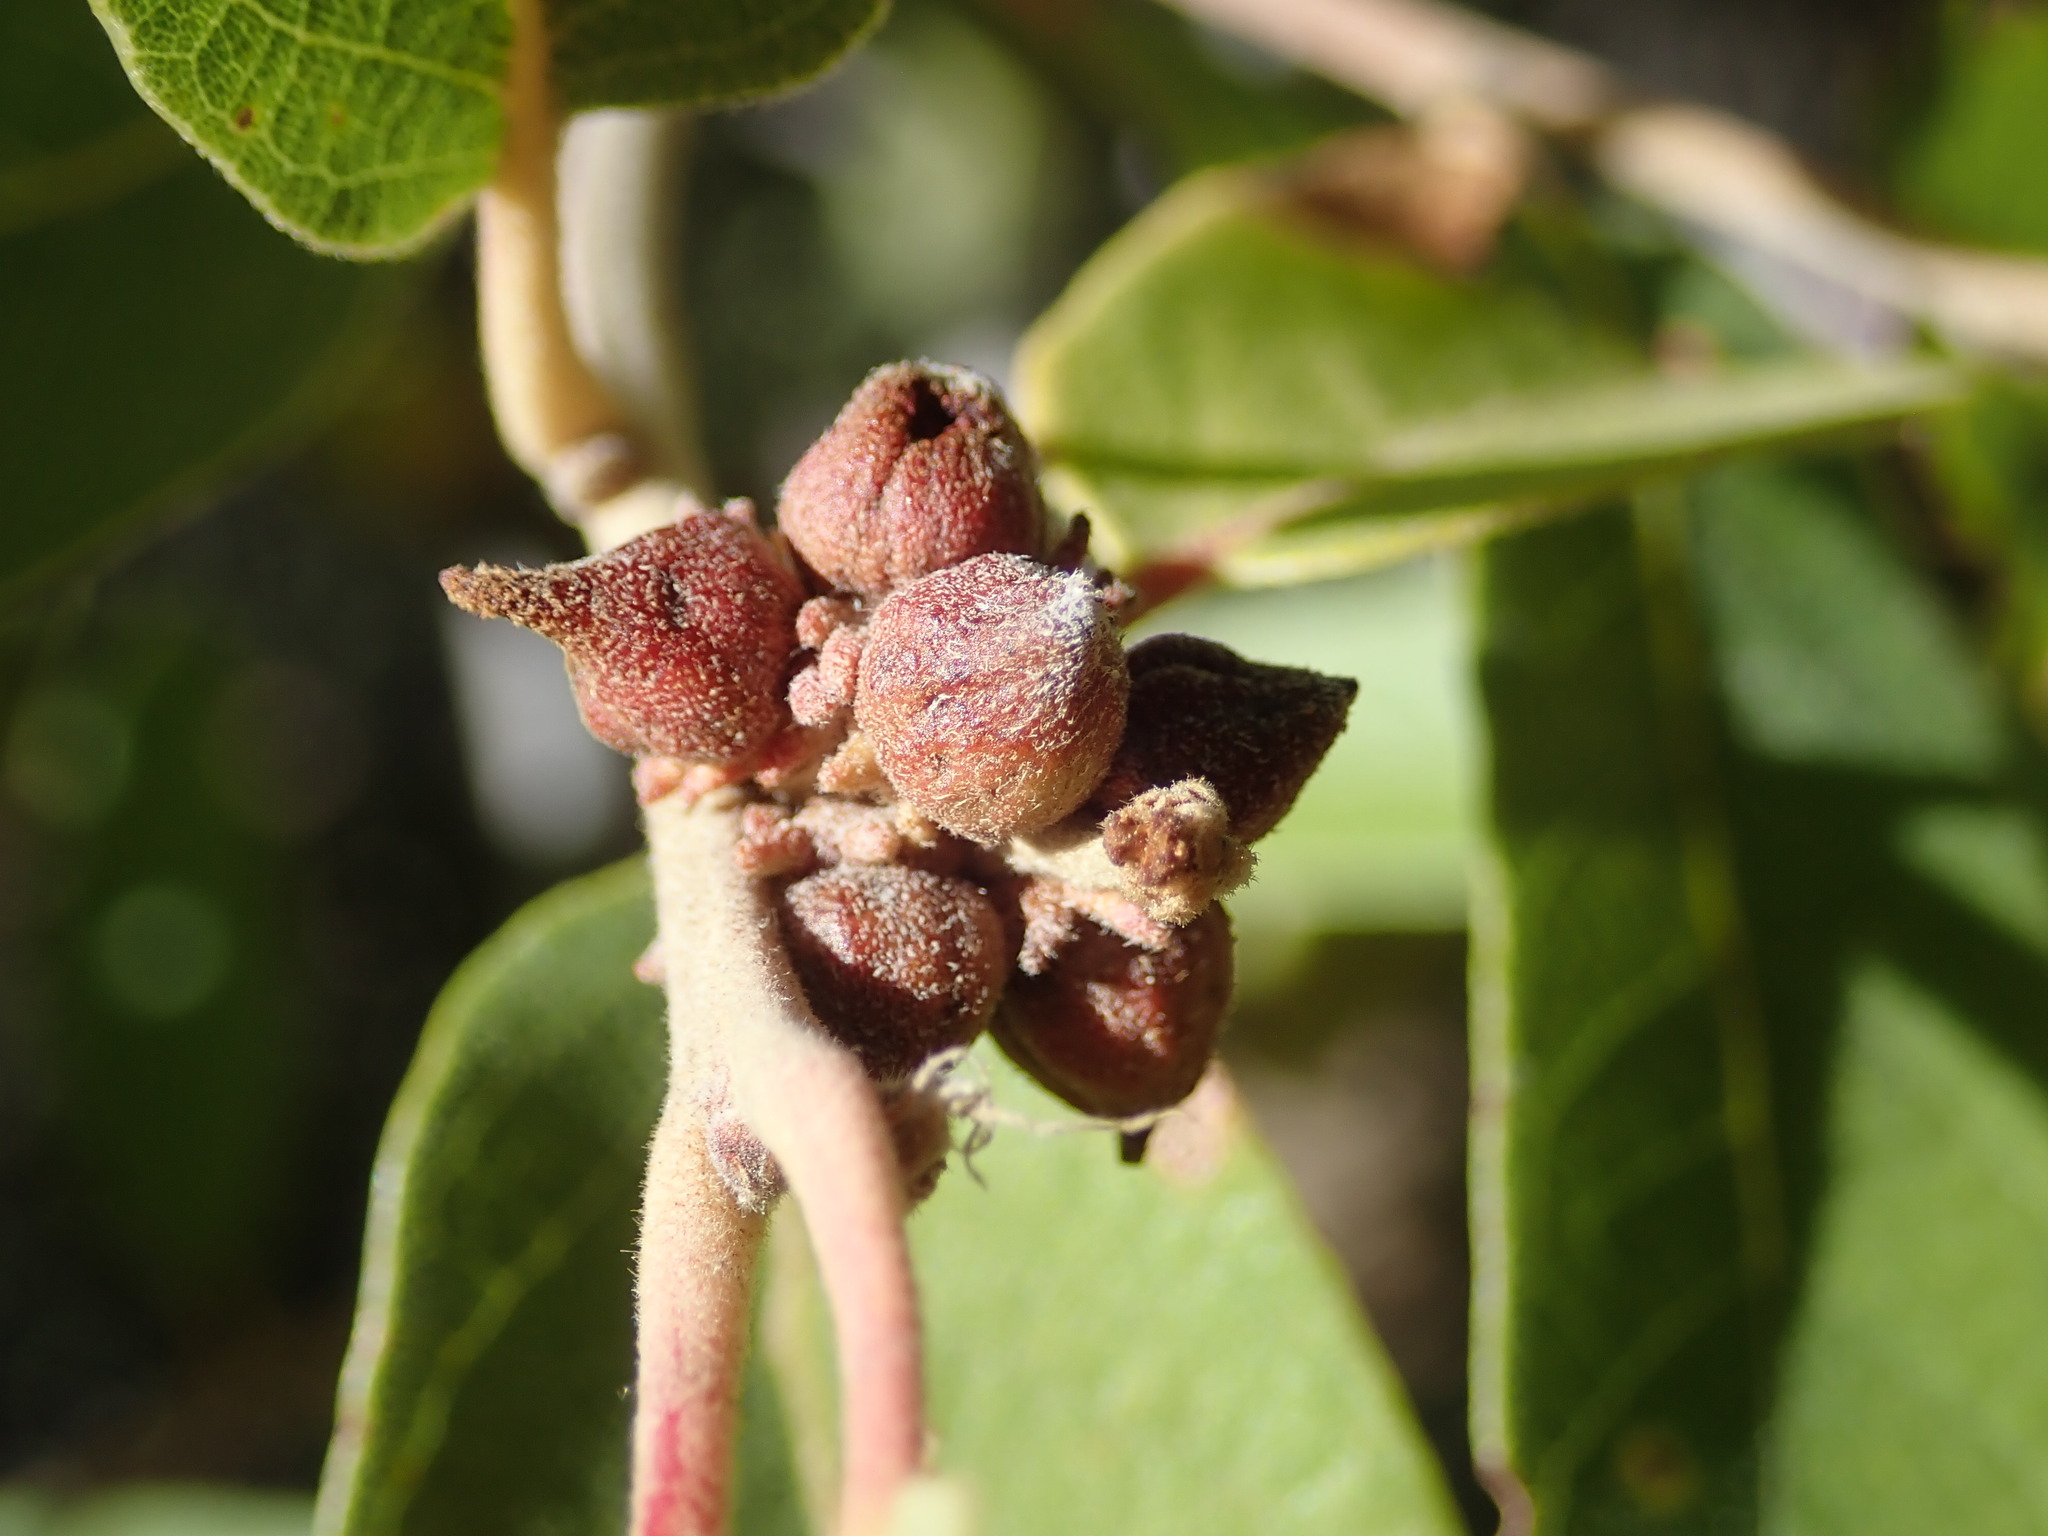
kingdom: Animalia
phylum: Arthropoda
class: Insecta
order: Hymenoptera
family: Cynipidae
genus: Disholcaspis
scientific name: Disholcaspis
